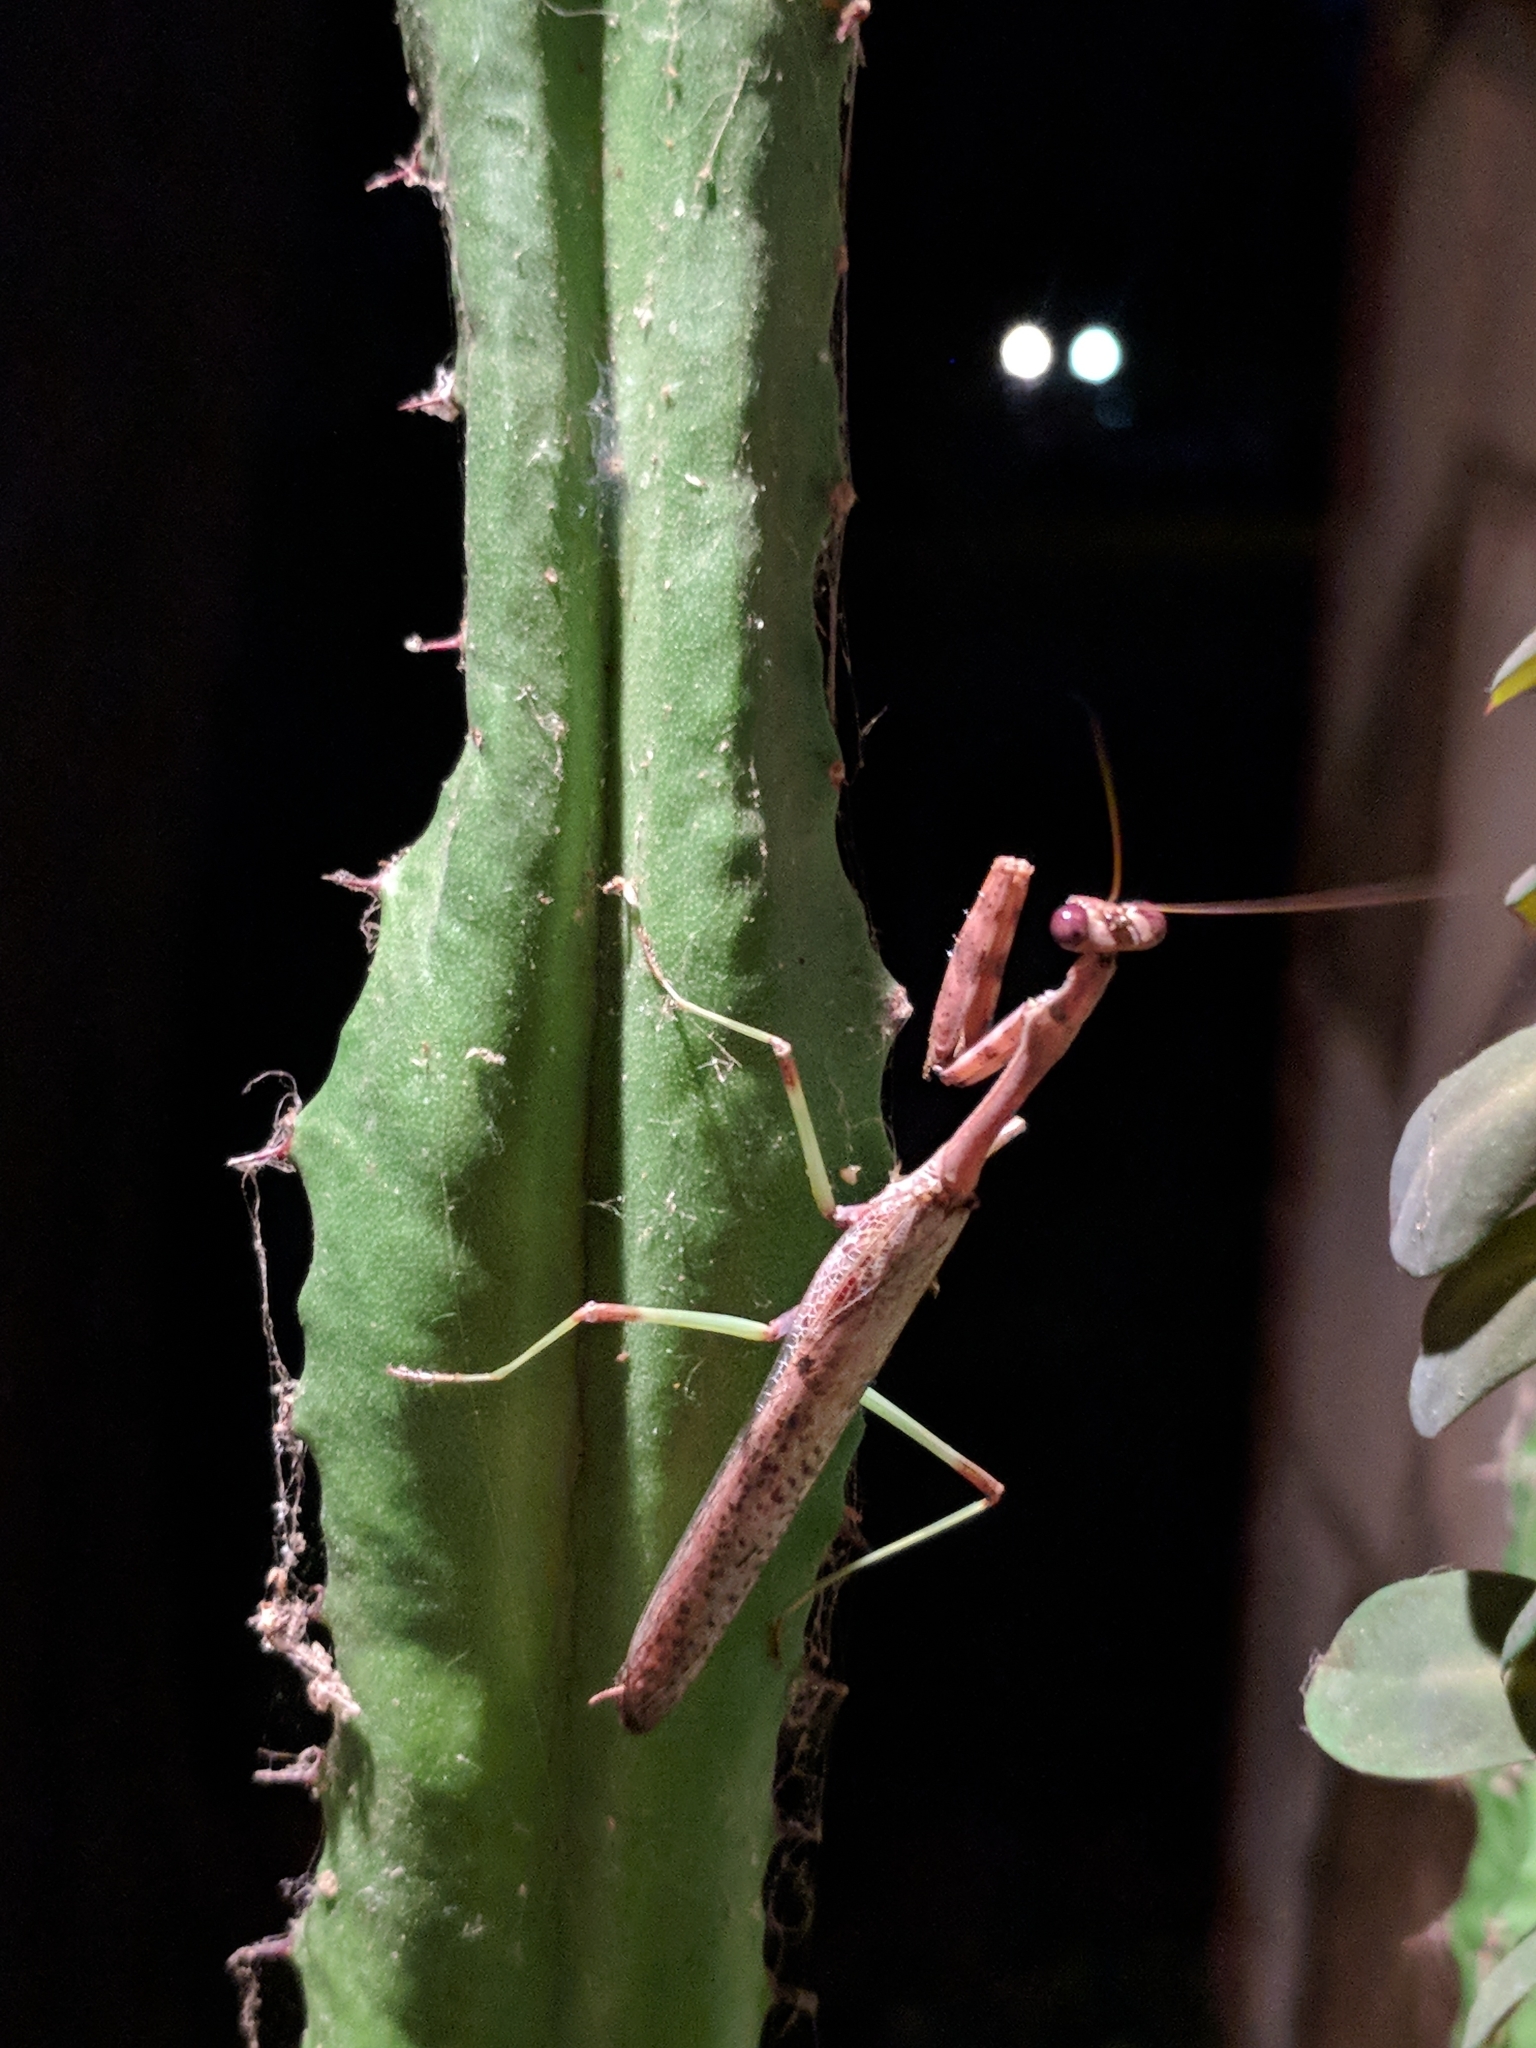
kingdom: Animalia
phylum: Arthropoda
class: Insecta
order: Mantodea
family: Mantidae
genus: Stagmomantis
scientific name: Stagmomantis carolina
